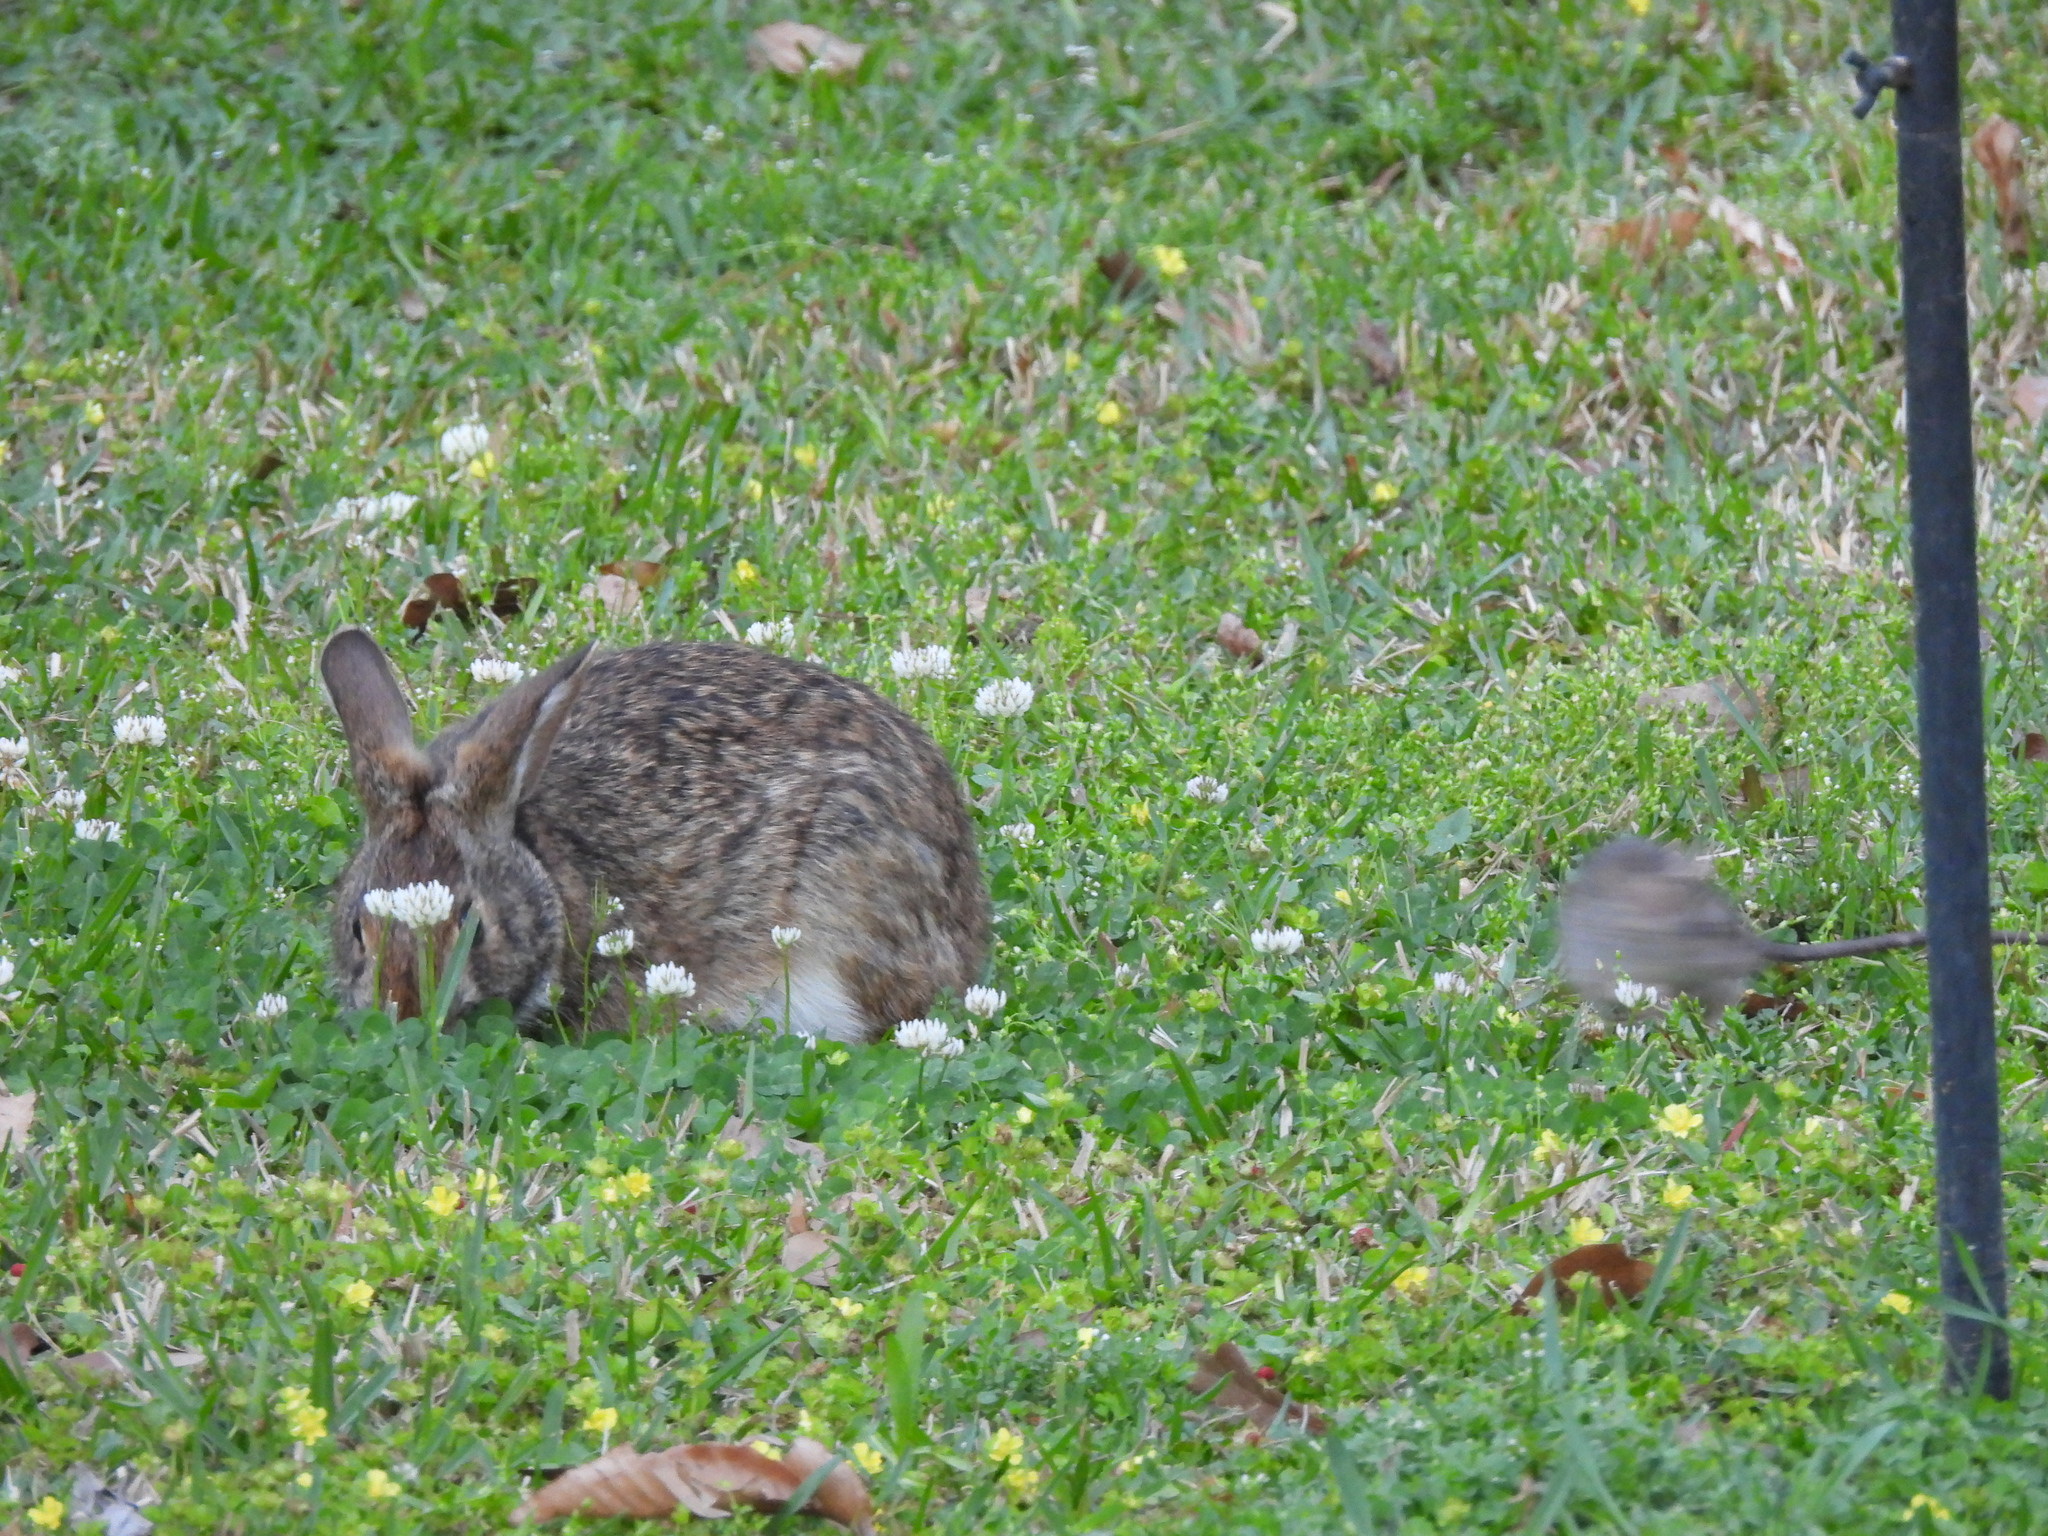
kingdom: Animalia
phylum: Chordata
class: Mammalia
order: Rodentia
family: Muridae
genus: Rattus
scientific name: Rattus rattus
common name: Black rat
